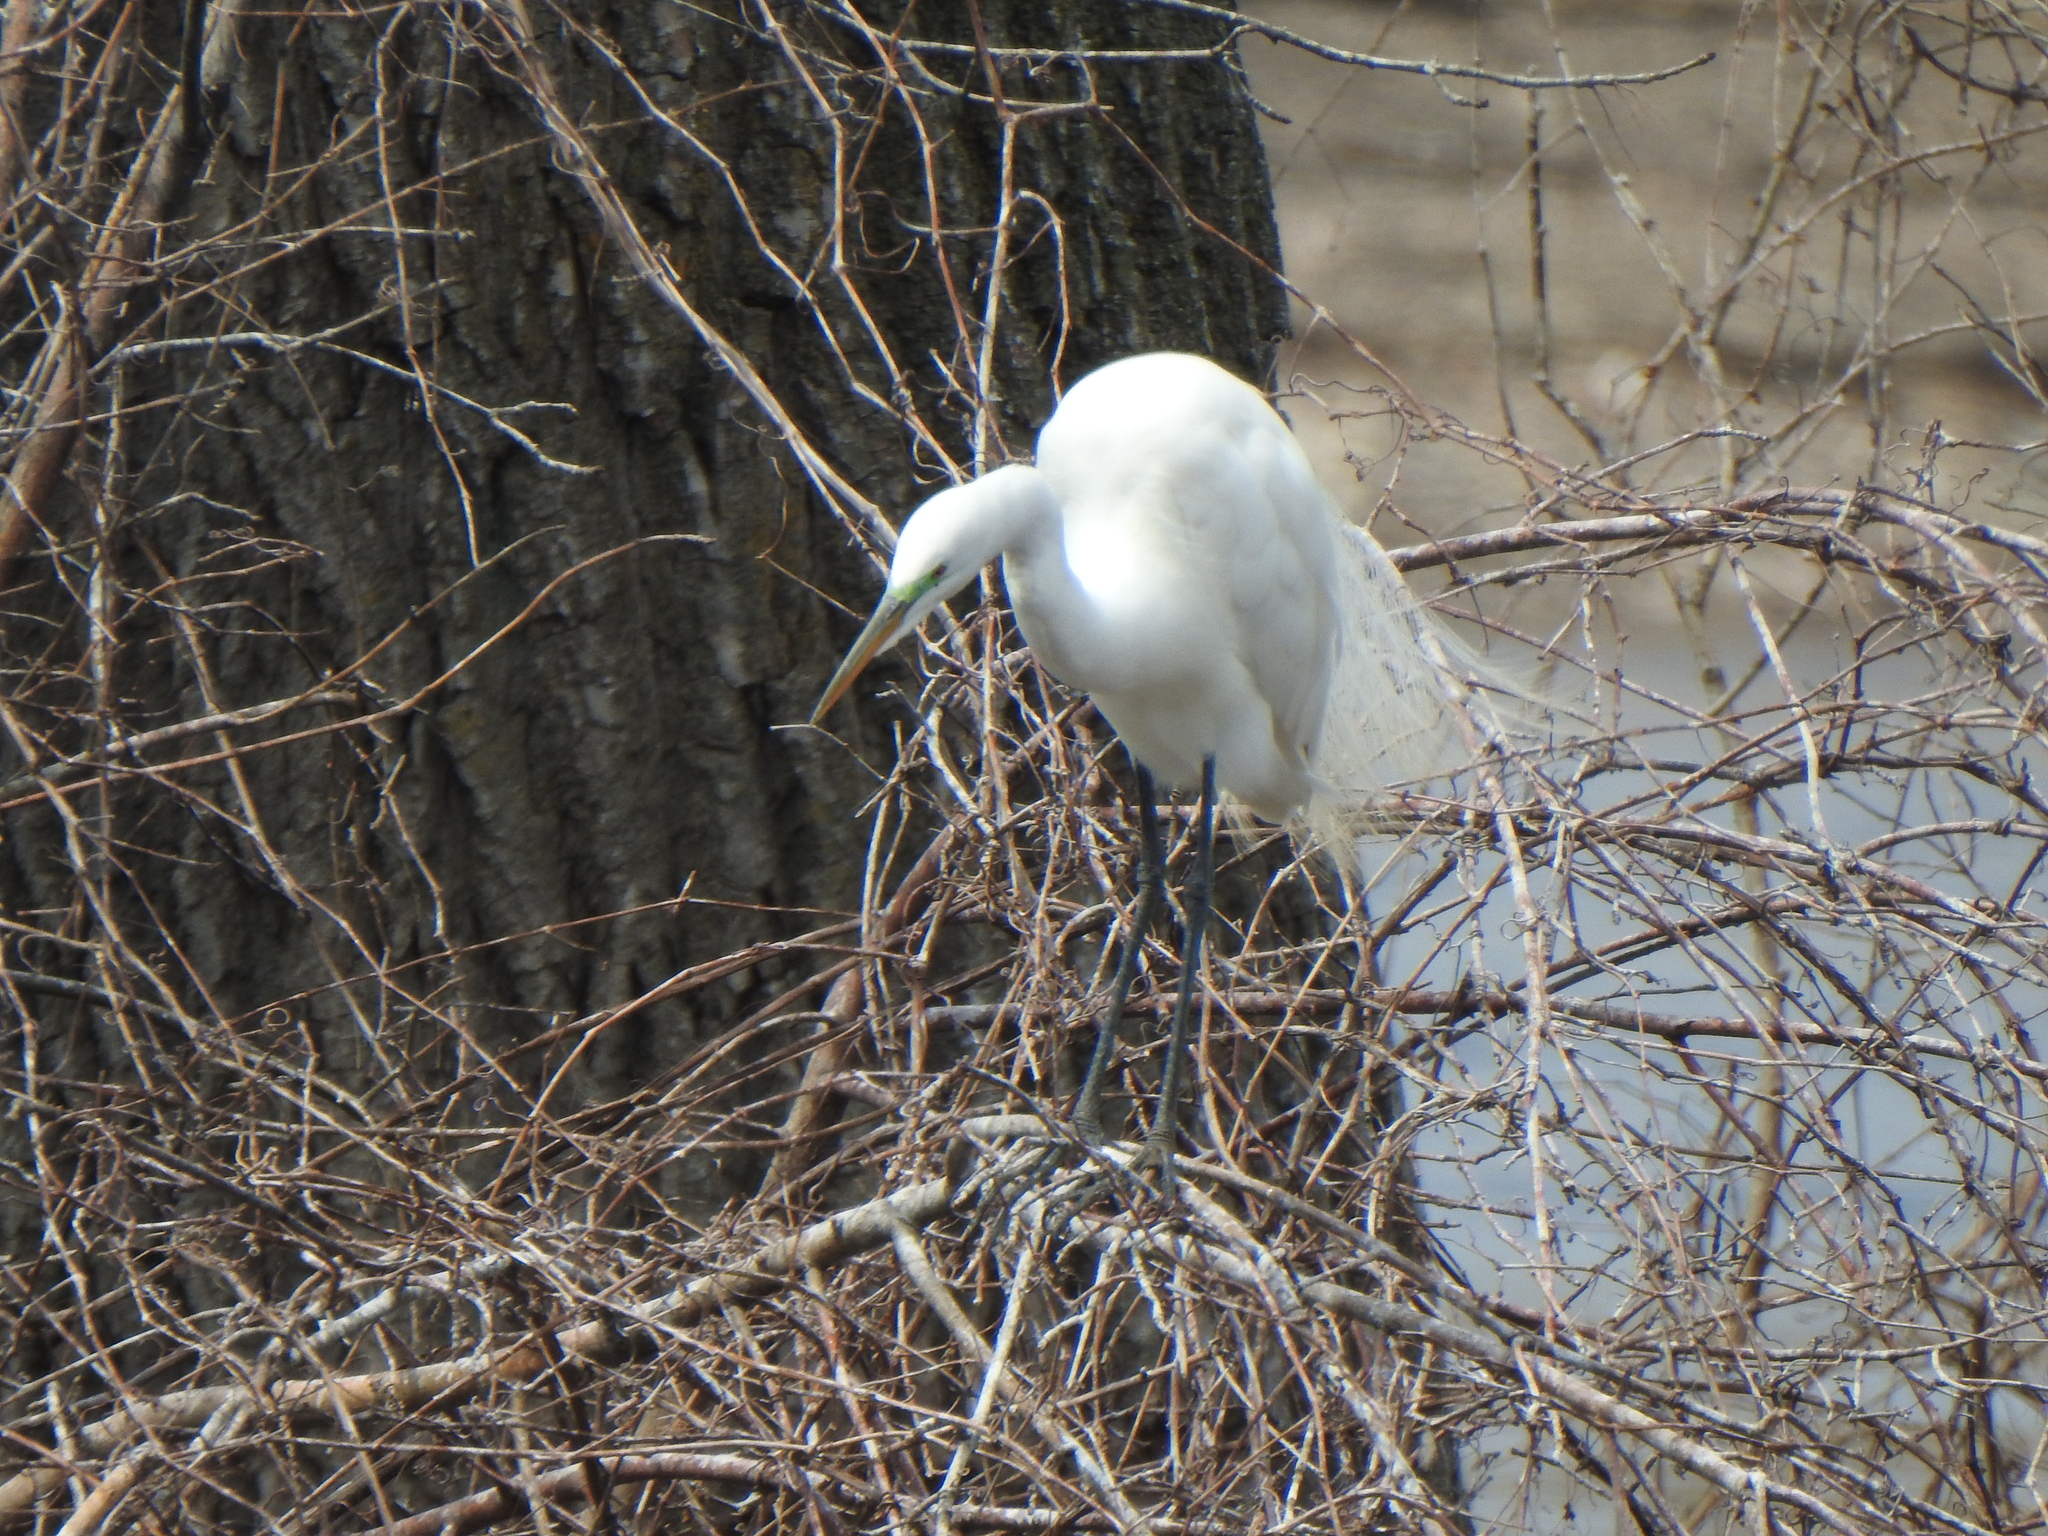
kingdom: Animalia
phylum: Chordata
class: Aves
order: Pelecaniformes
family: Ardeidae
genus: Ardea
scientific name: Ardea alba
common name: Great egret
